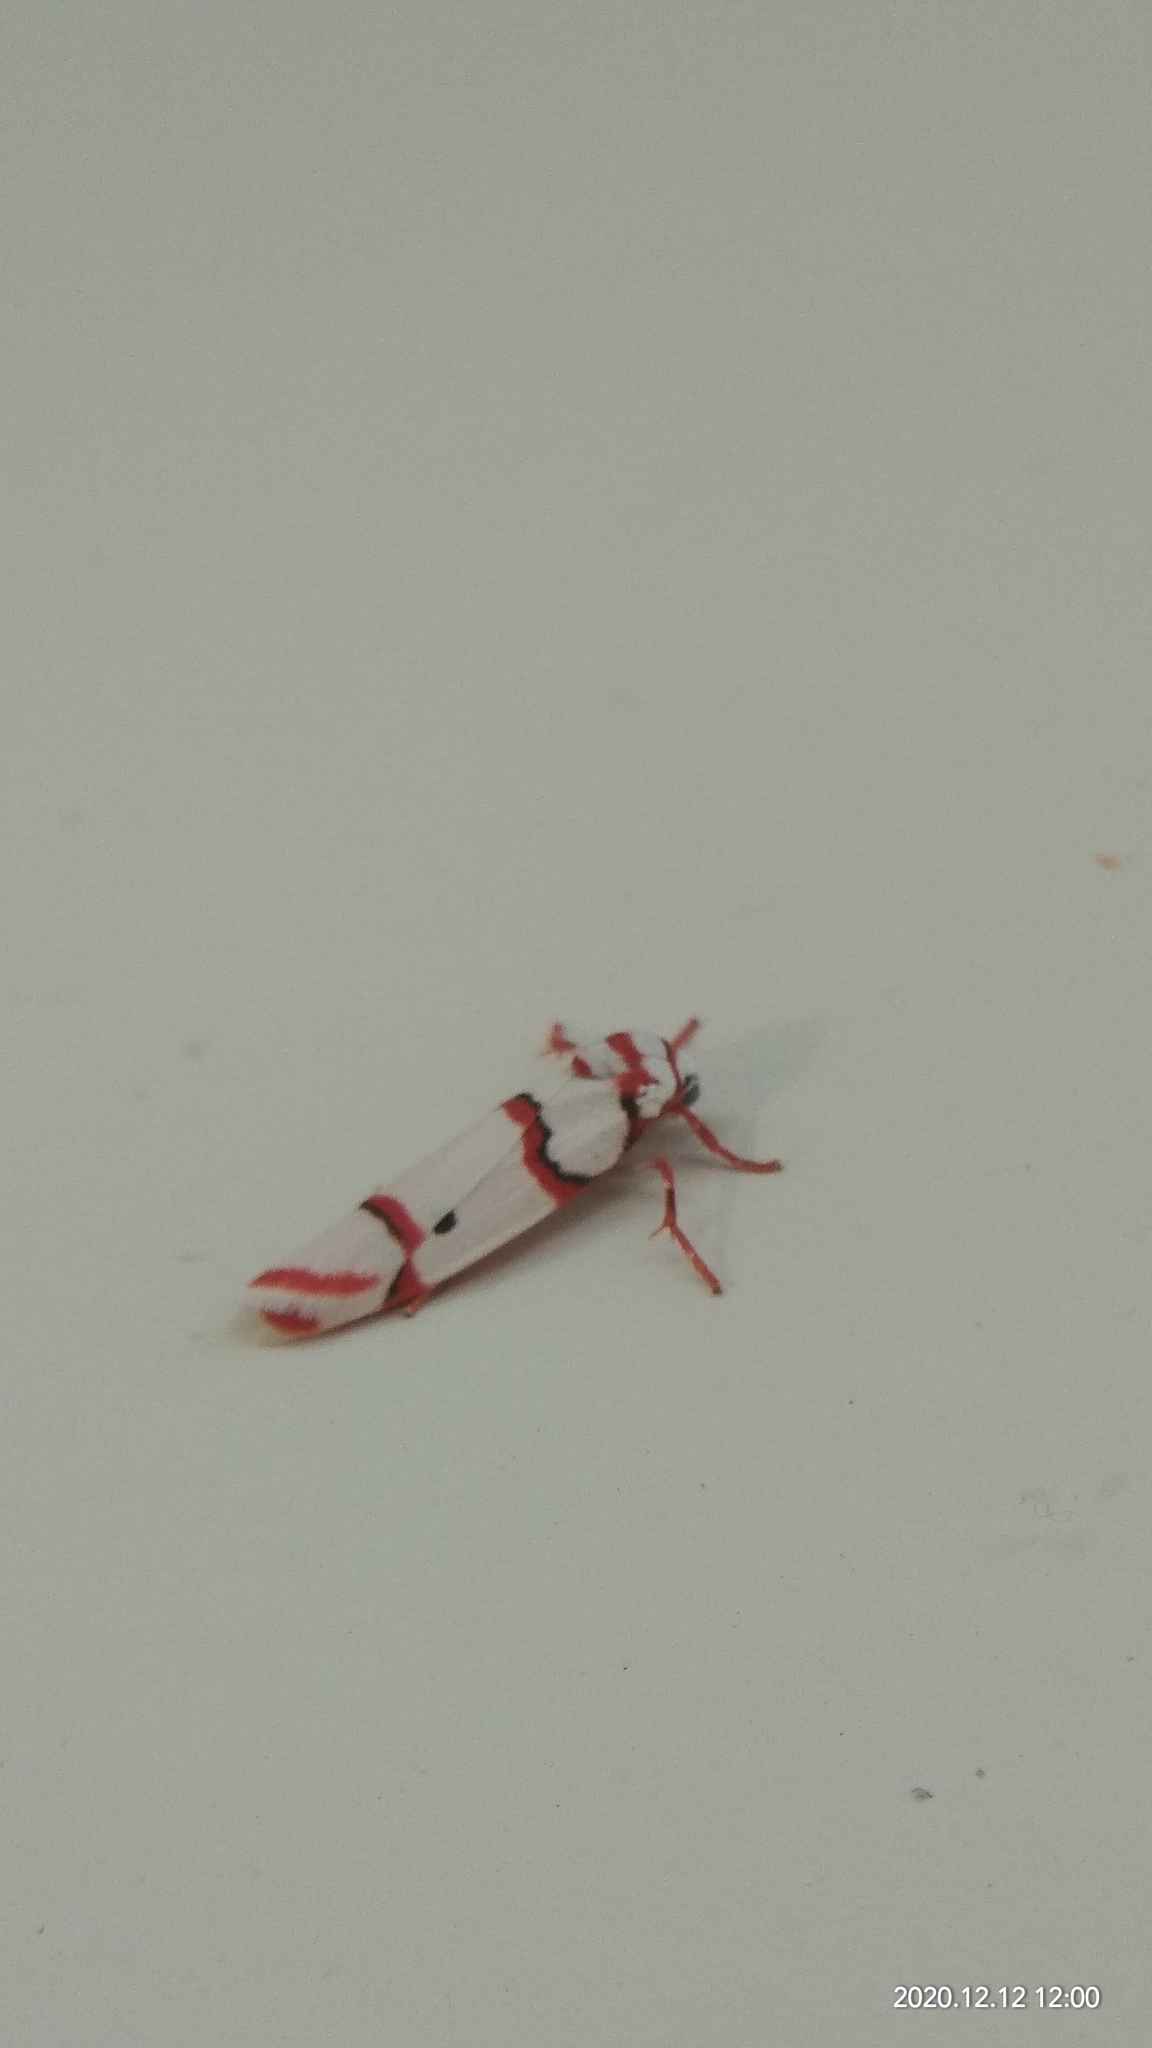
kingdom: Animalia
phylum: Arthropoda
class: Insecta
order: Lepidoptera
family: Erebidae
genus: Cyana
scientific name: Cyana peregrina
